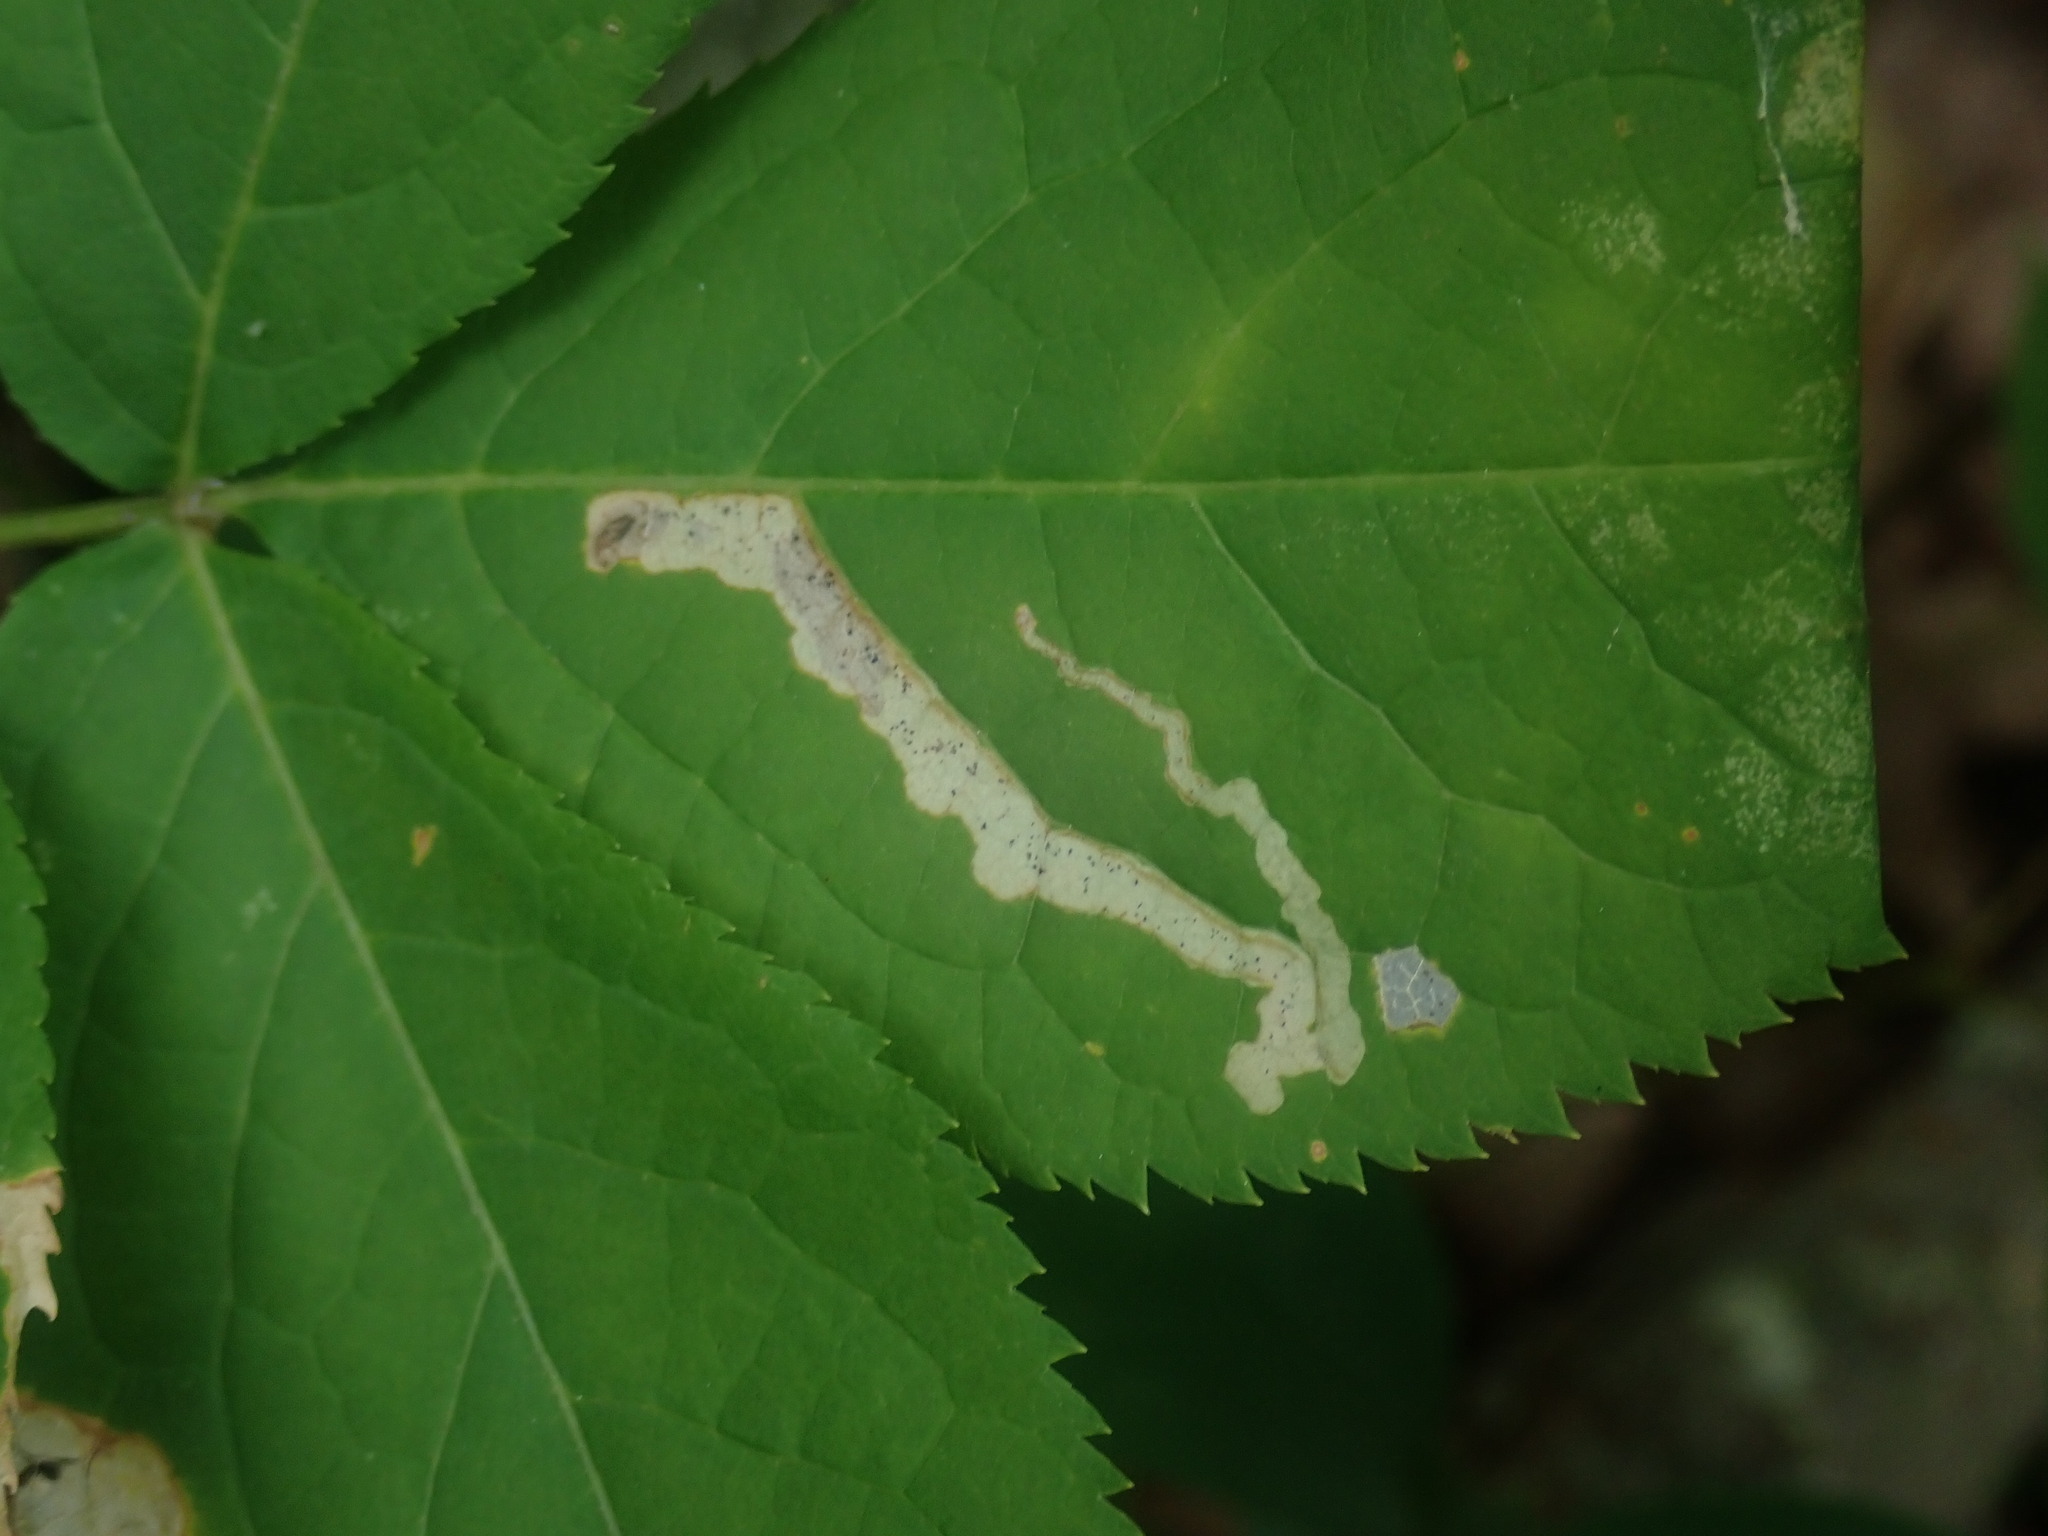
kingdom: Animalia
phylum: Arthropoda
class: Insecta
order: Diptera
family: Agromyzidae
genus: Phytomyza
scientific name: Phytomyza aralivora
